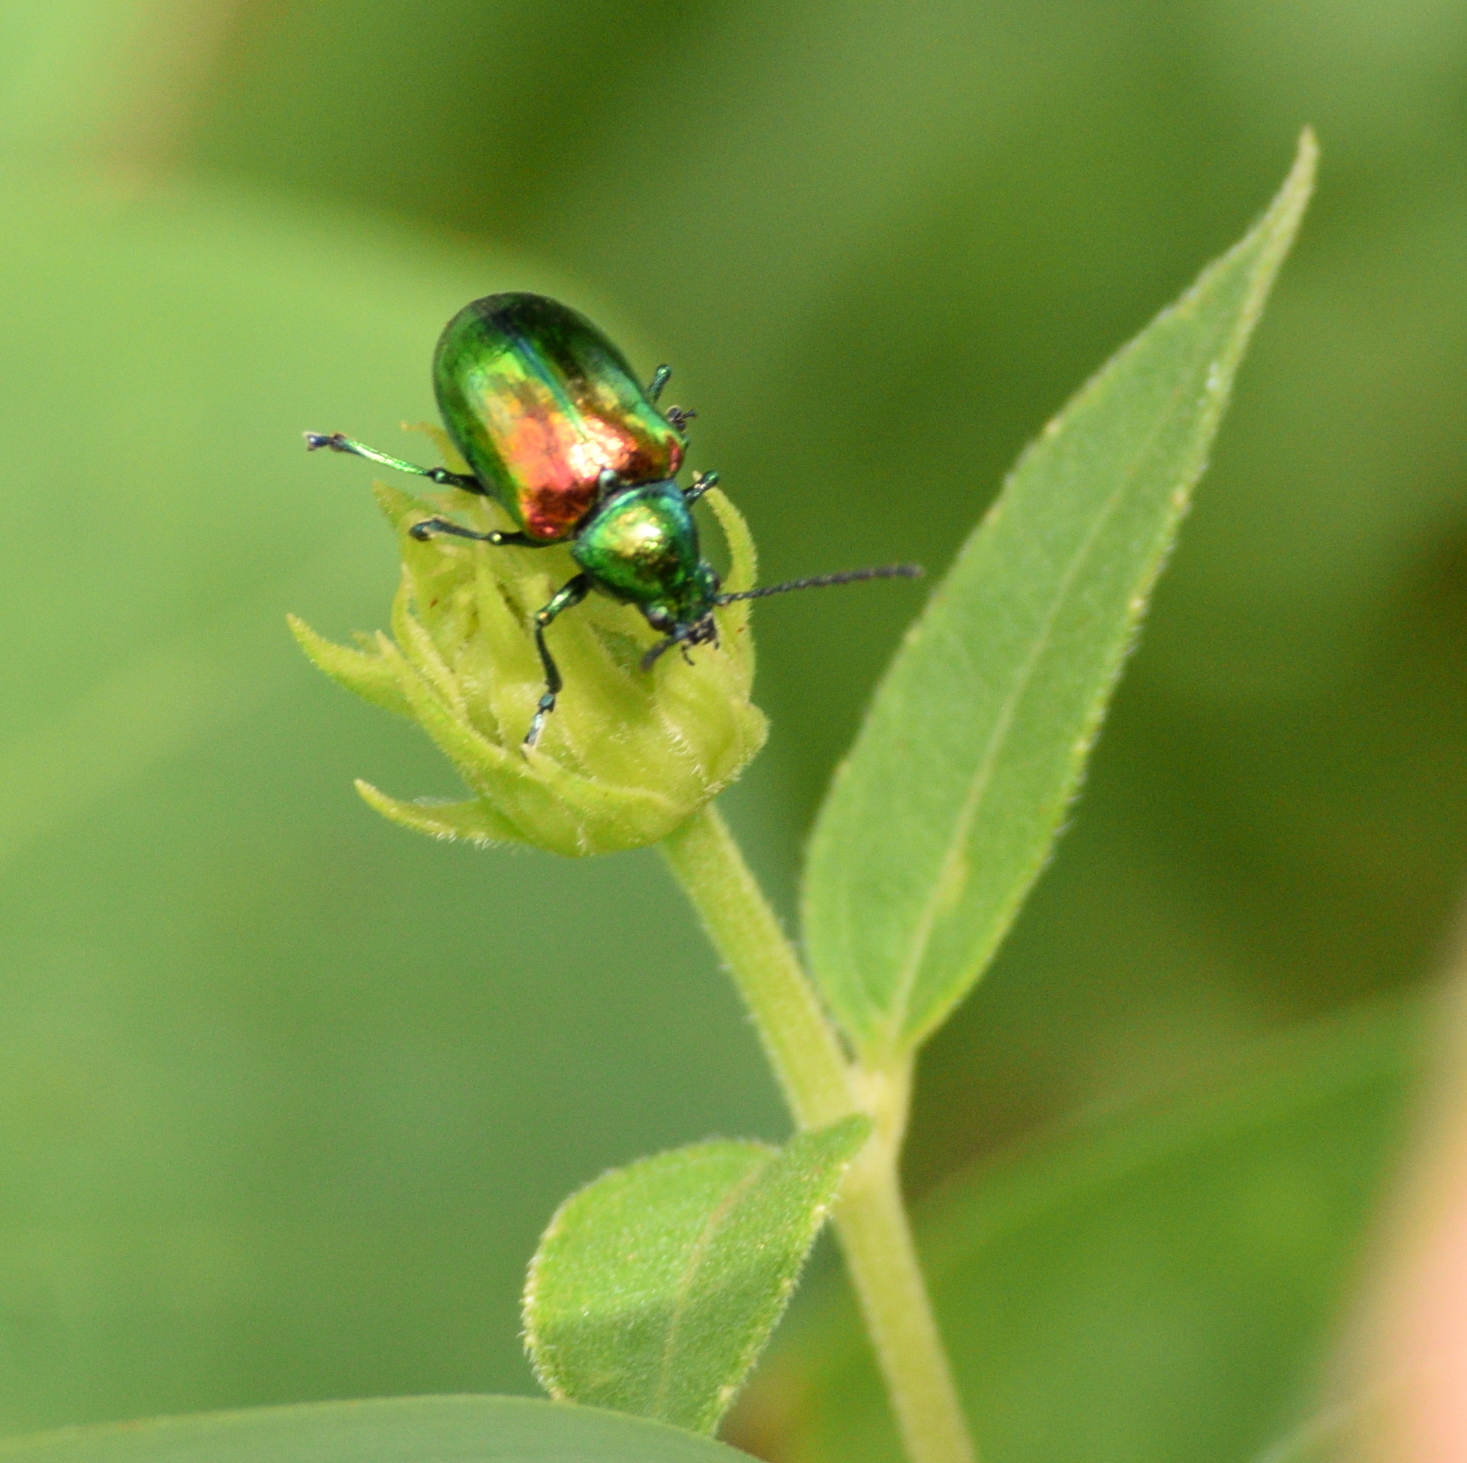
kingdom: Animalia
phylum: Arthropoda
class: Insecta
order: Coleoptera
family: Chrysomelidae
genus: Chrysochus
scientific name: Chrysochus auratus
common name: Dogbane leaf beetle
